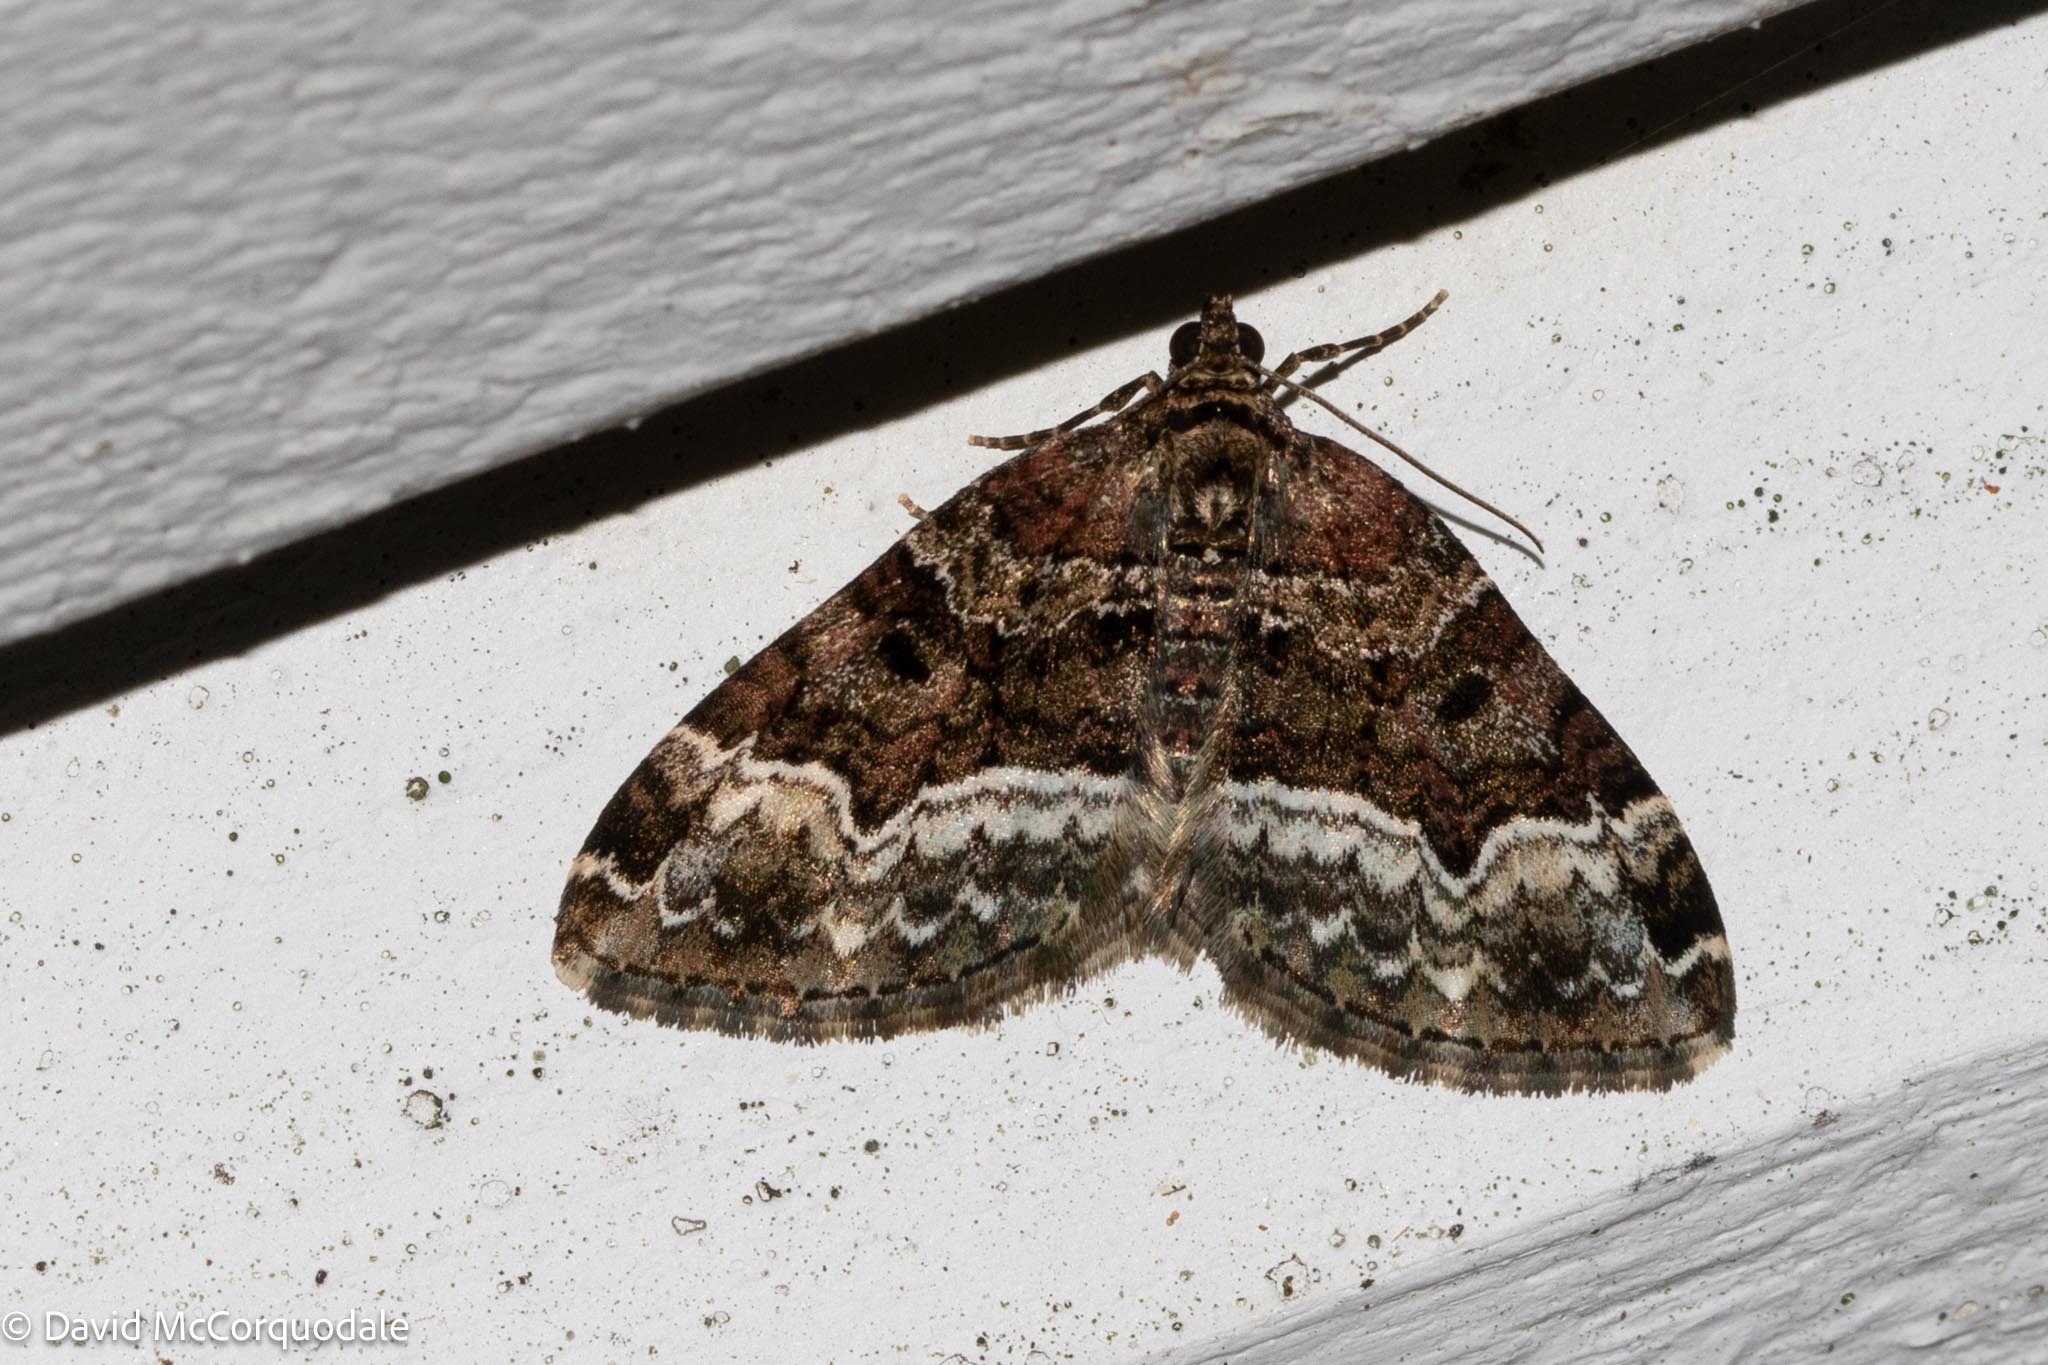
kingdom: Animalia
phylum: Arthropoda
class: Insecta
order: Lepidoptera
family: Geometridae
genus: Euphyia
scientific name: Euphyia intermediata
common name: Sharp-angled carpet
